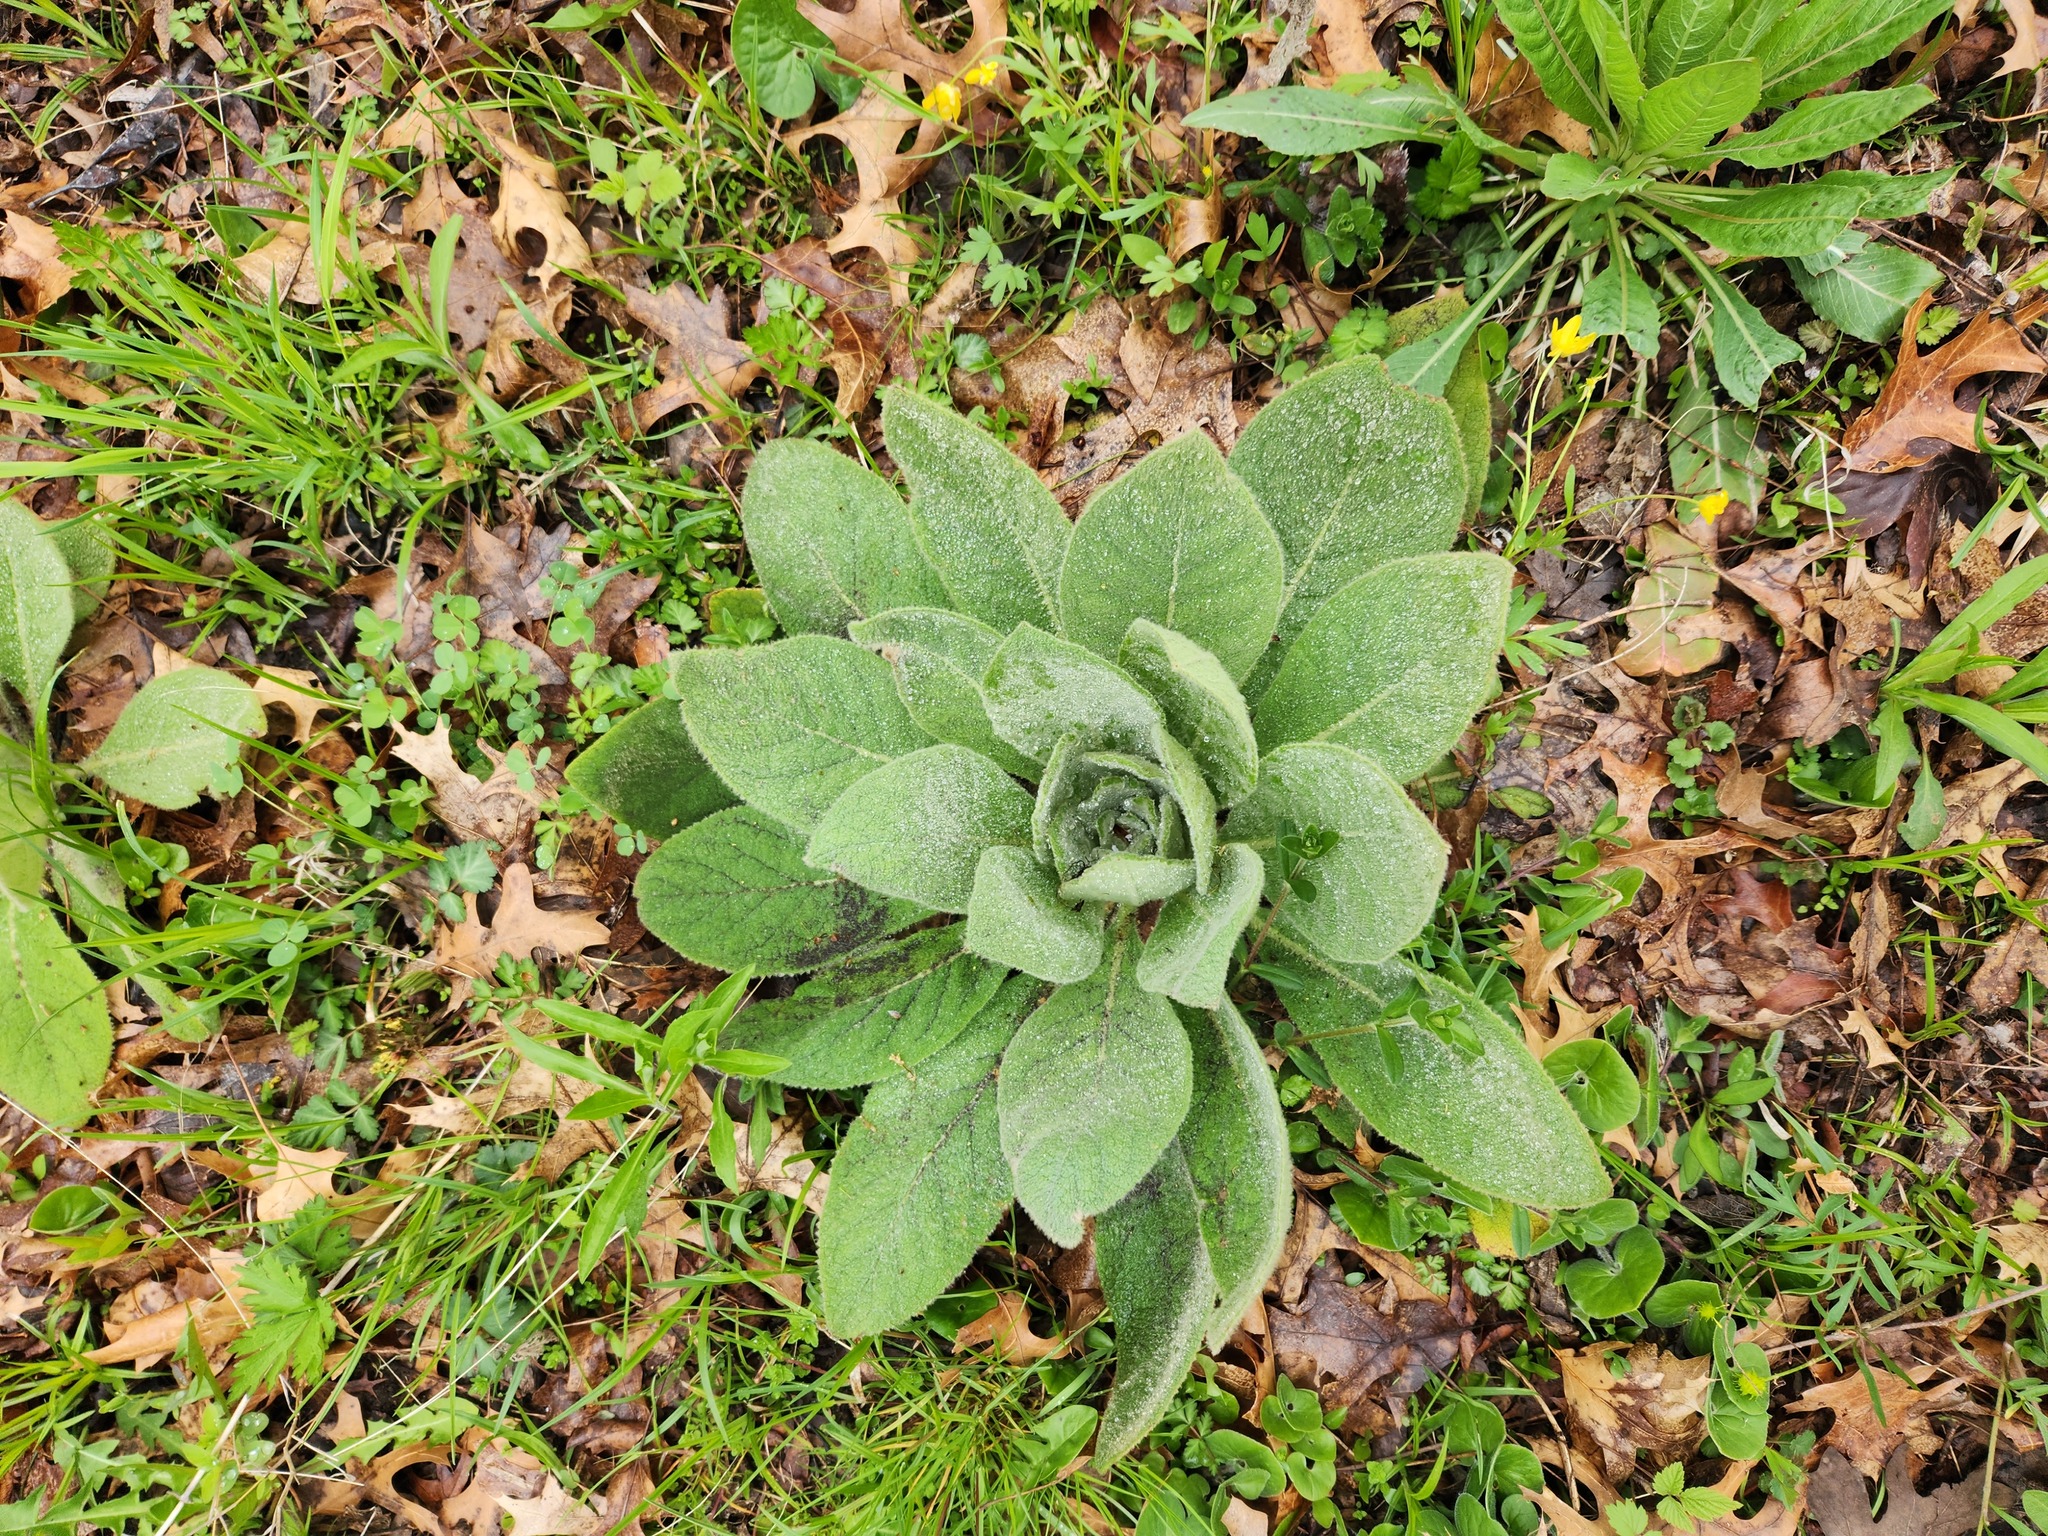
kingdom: Plantae
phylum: Tracheophyta
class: Magnoliopsida
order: Lamiales
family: Scrophulariaceae
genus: Verbascum
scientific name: Verbascum thapsus
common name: Common mullein
